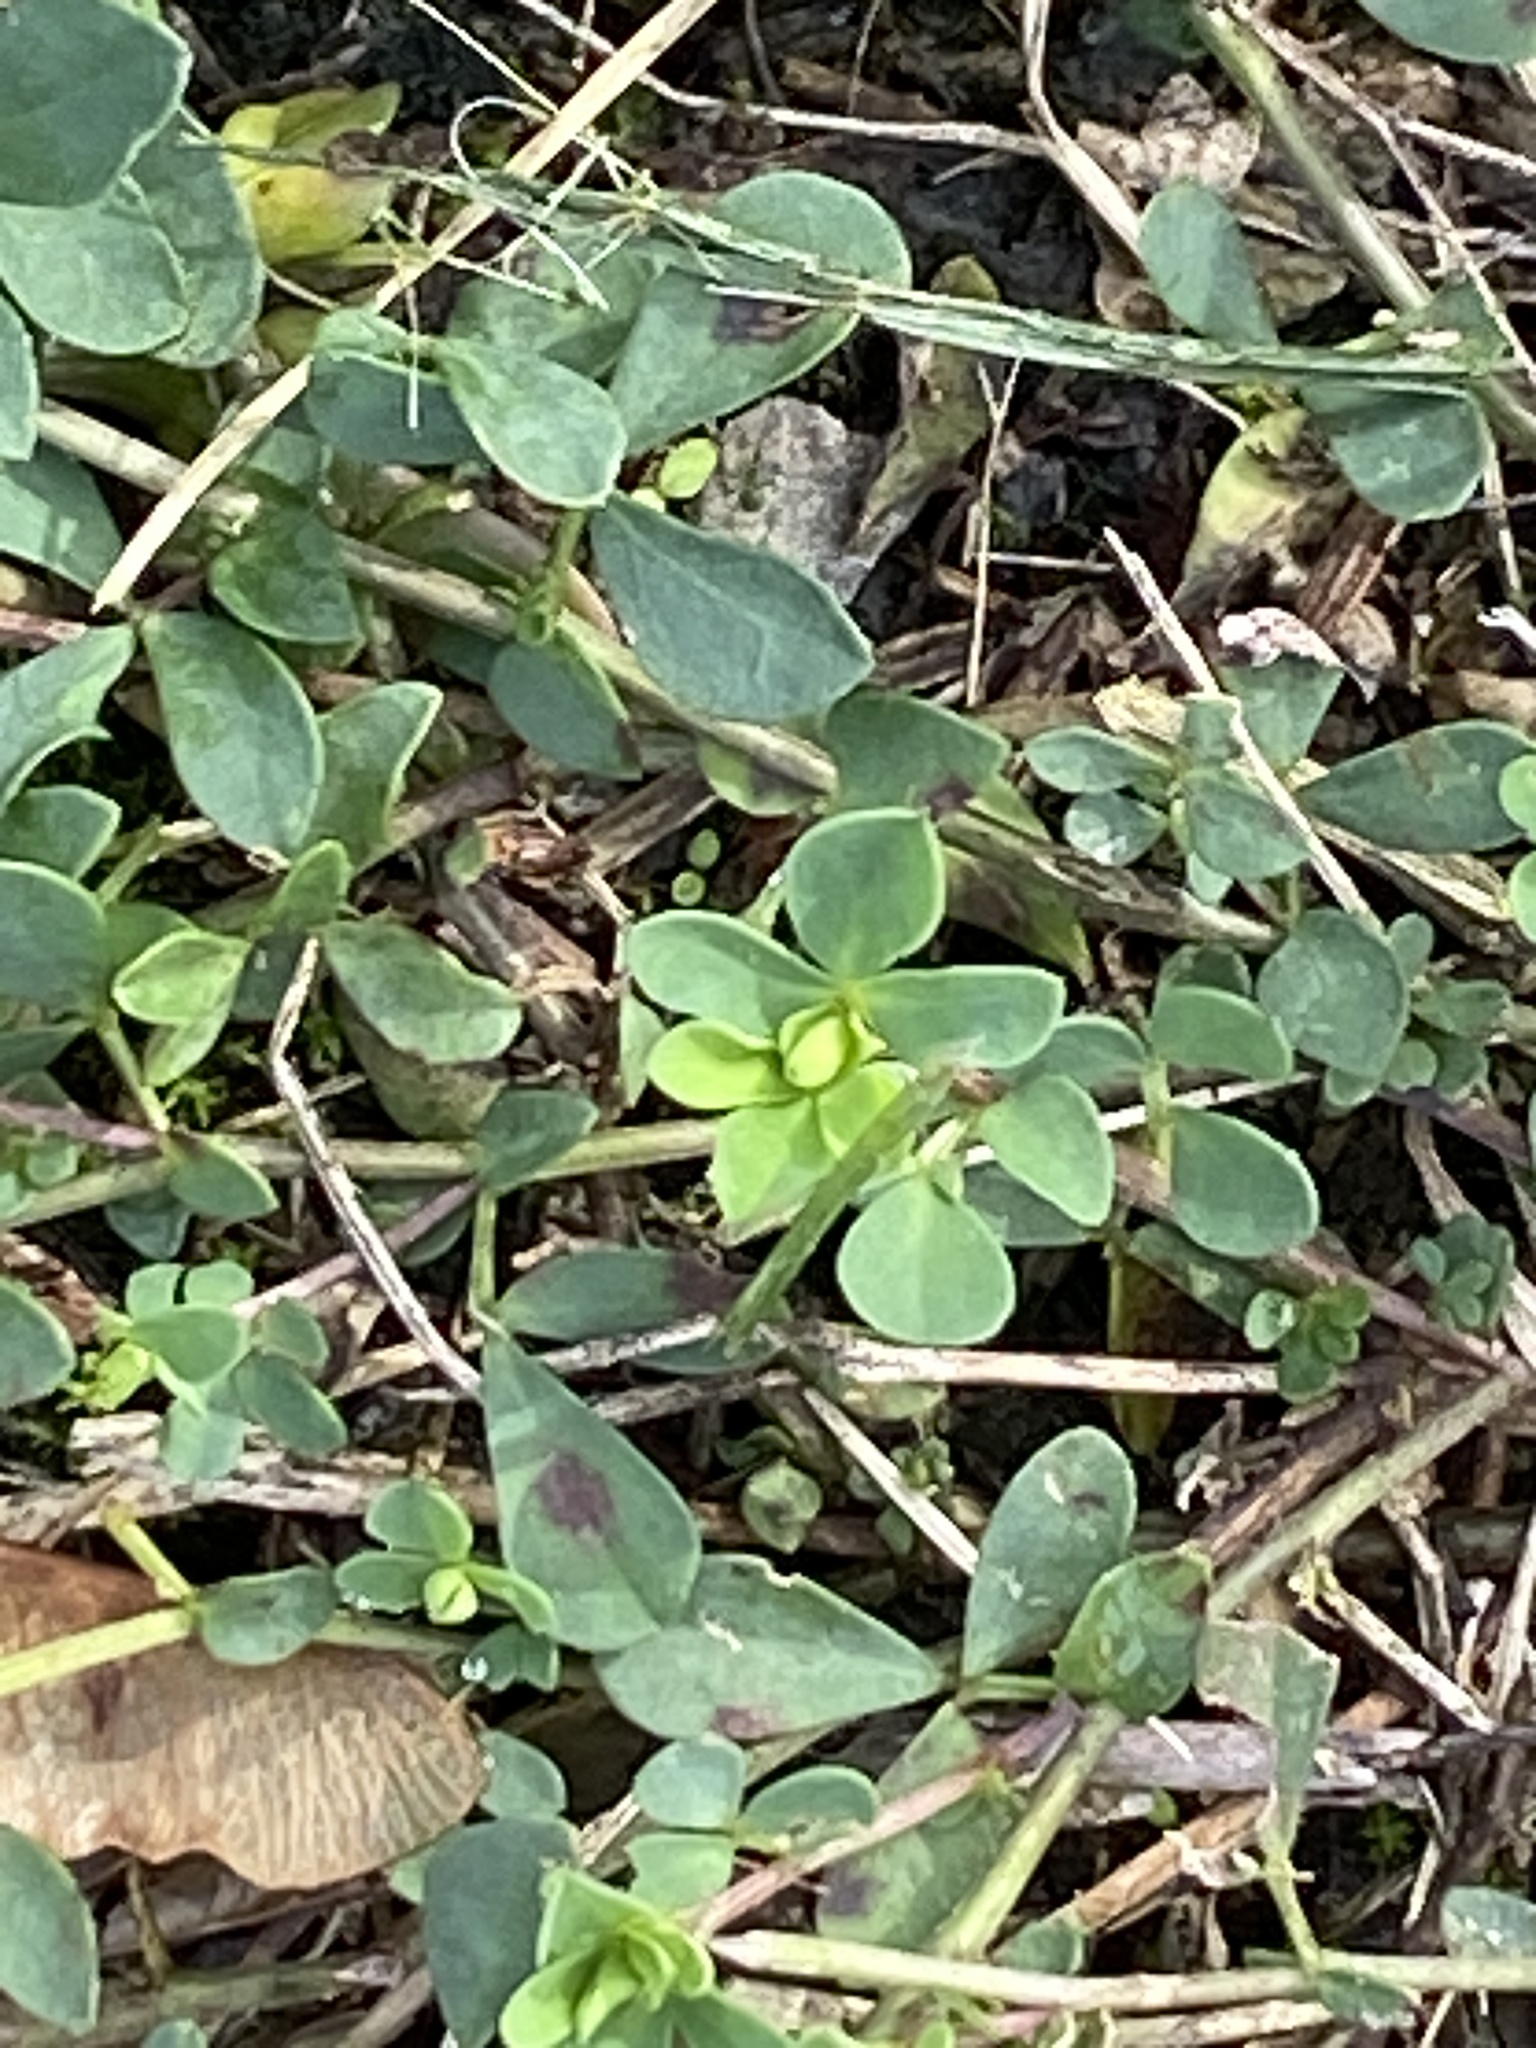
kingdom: Plantae
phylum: Tracheophyta
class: Magnoliopsida
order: Fabales
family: Fabaceae
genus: Lotus
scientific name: Lotus corniculatus
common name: Common bird's-foot-trefoil
